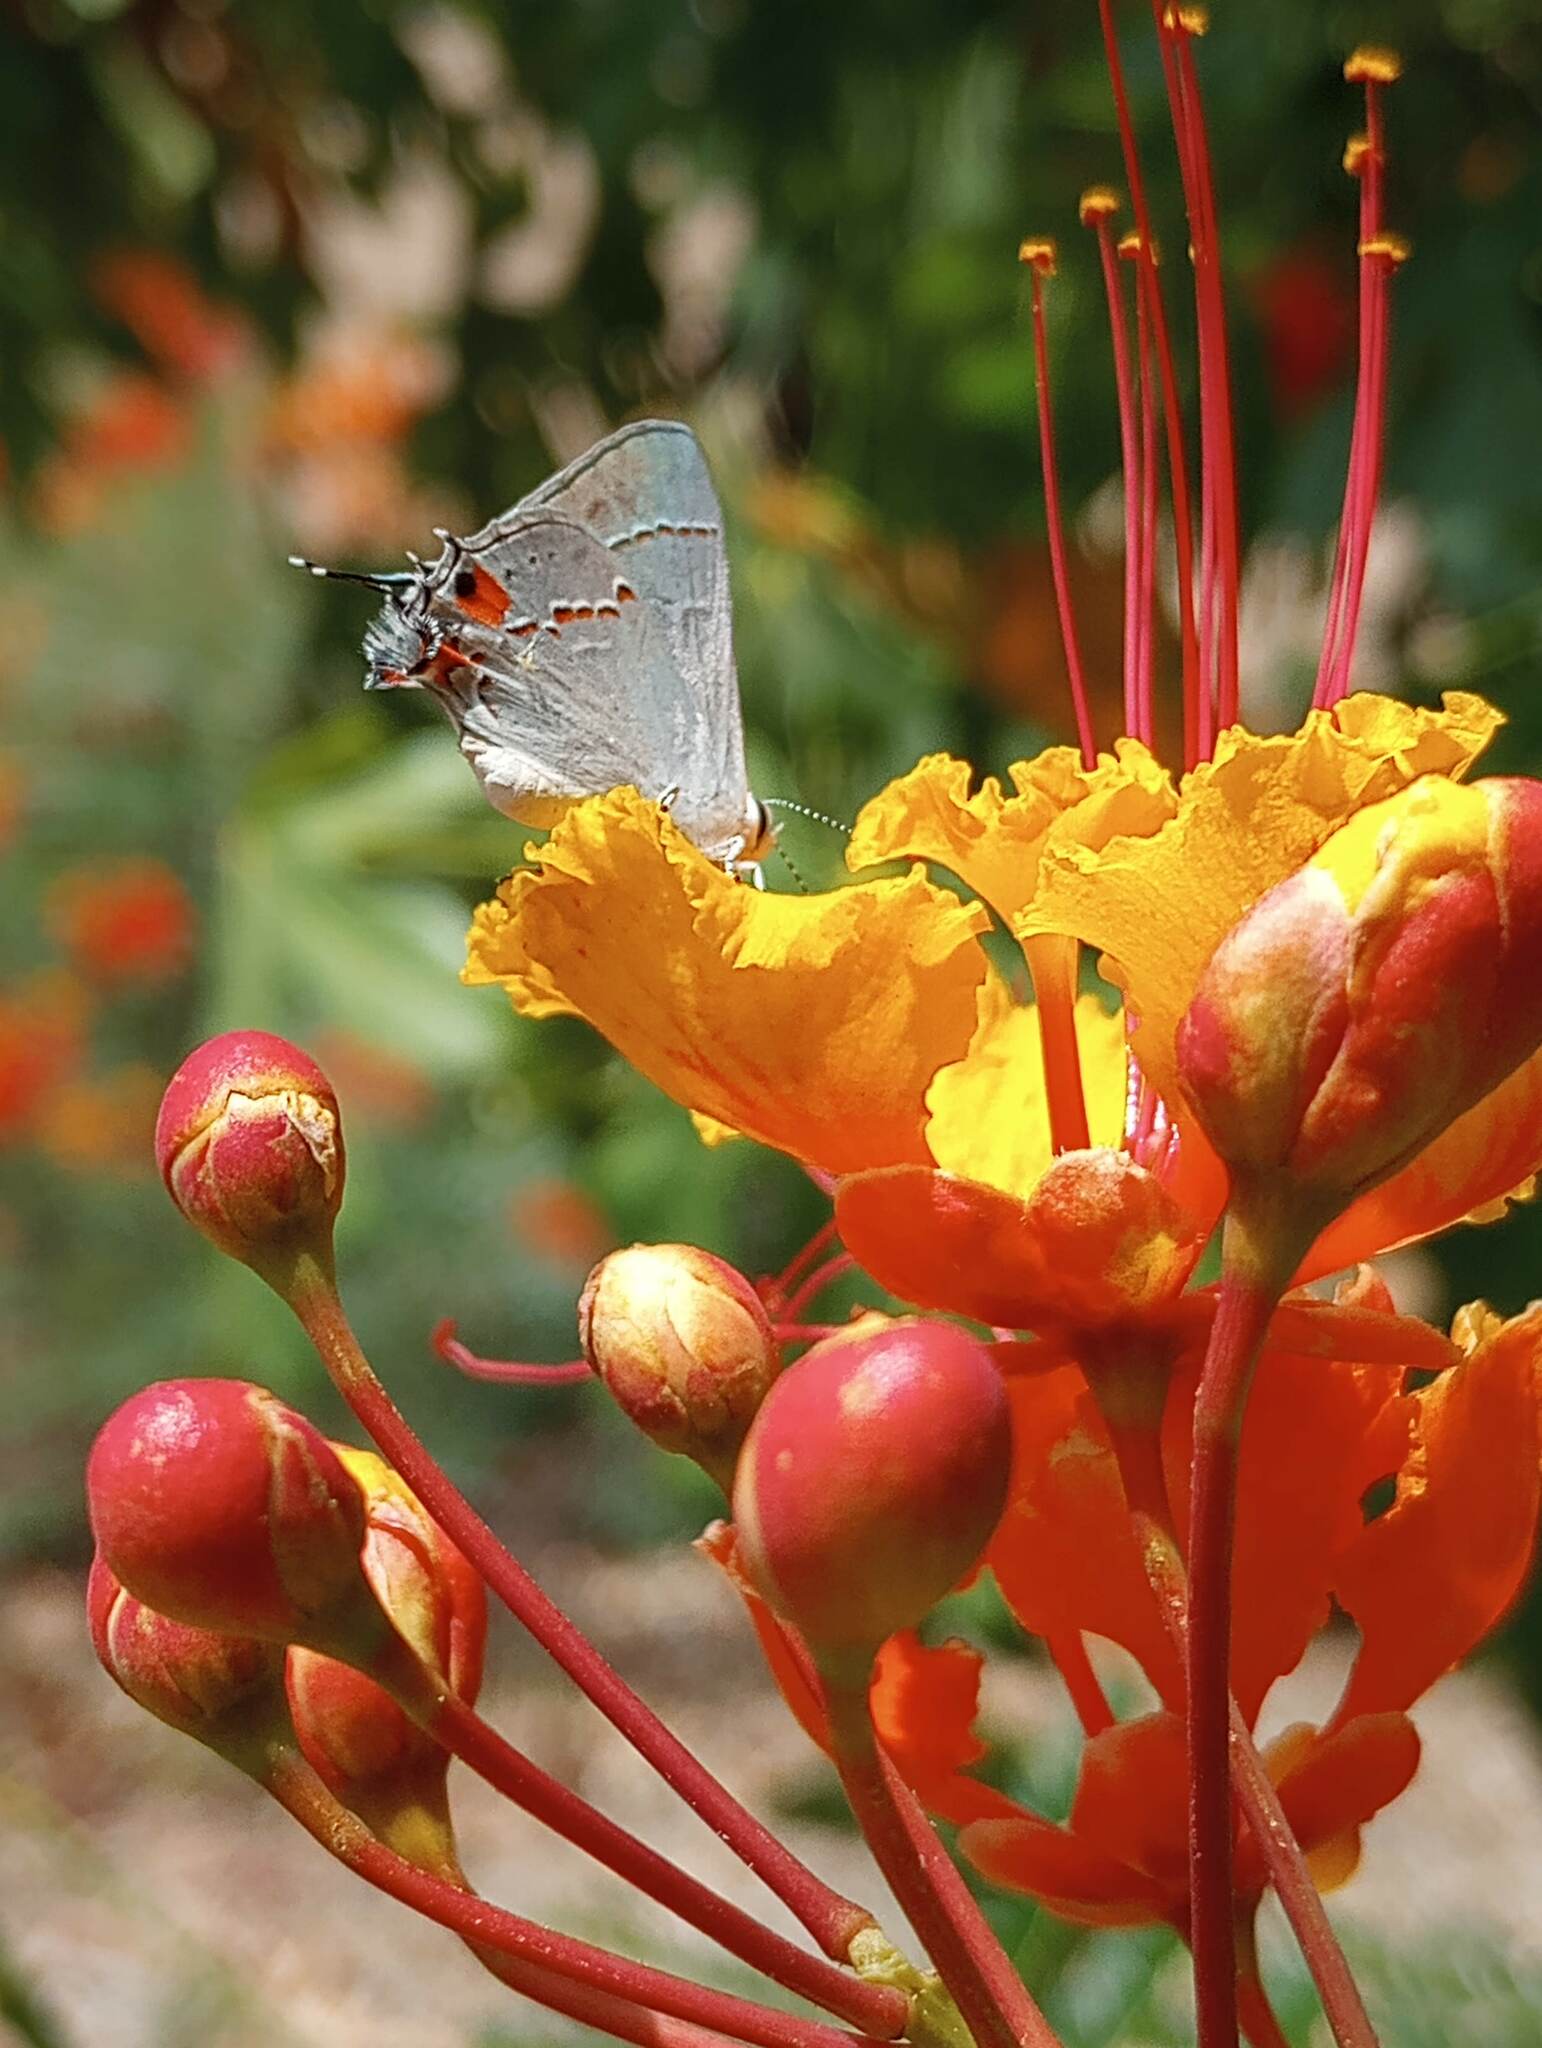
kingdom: Animalia
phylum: Arthropoda
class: Insecta
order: Lepidoptera
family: Lycaenidae
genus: Strymon
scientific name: Strymon melinus
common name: Gray hairstreak
